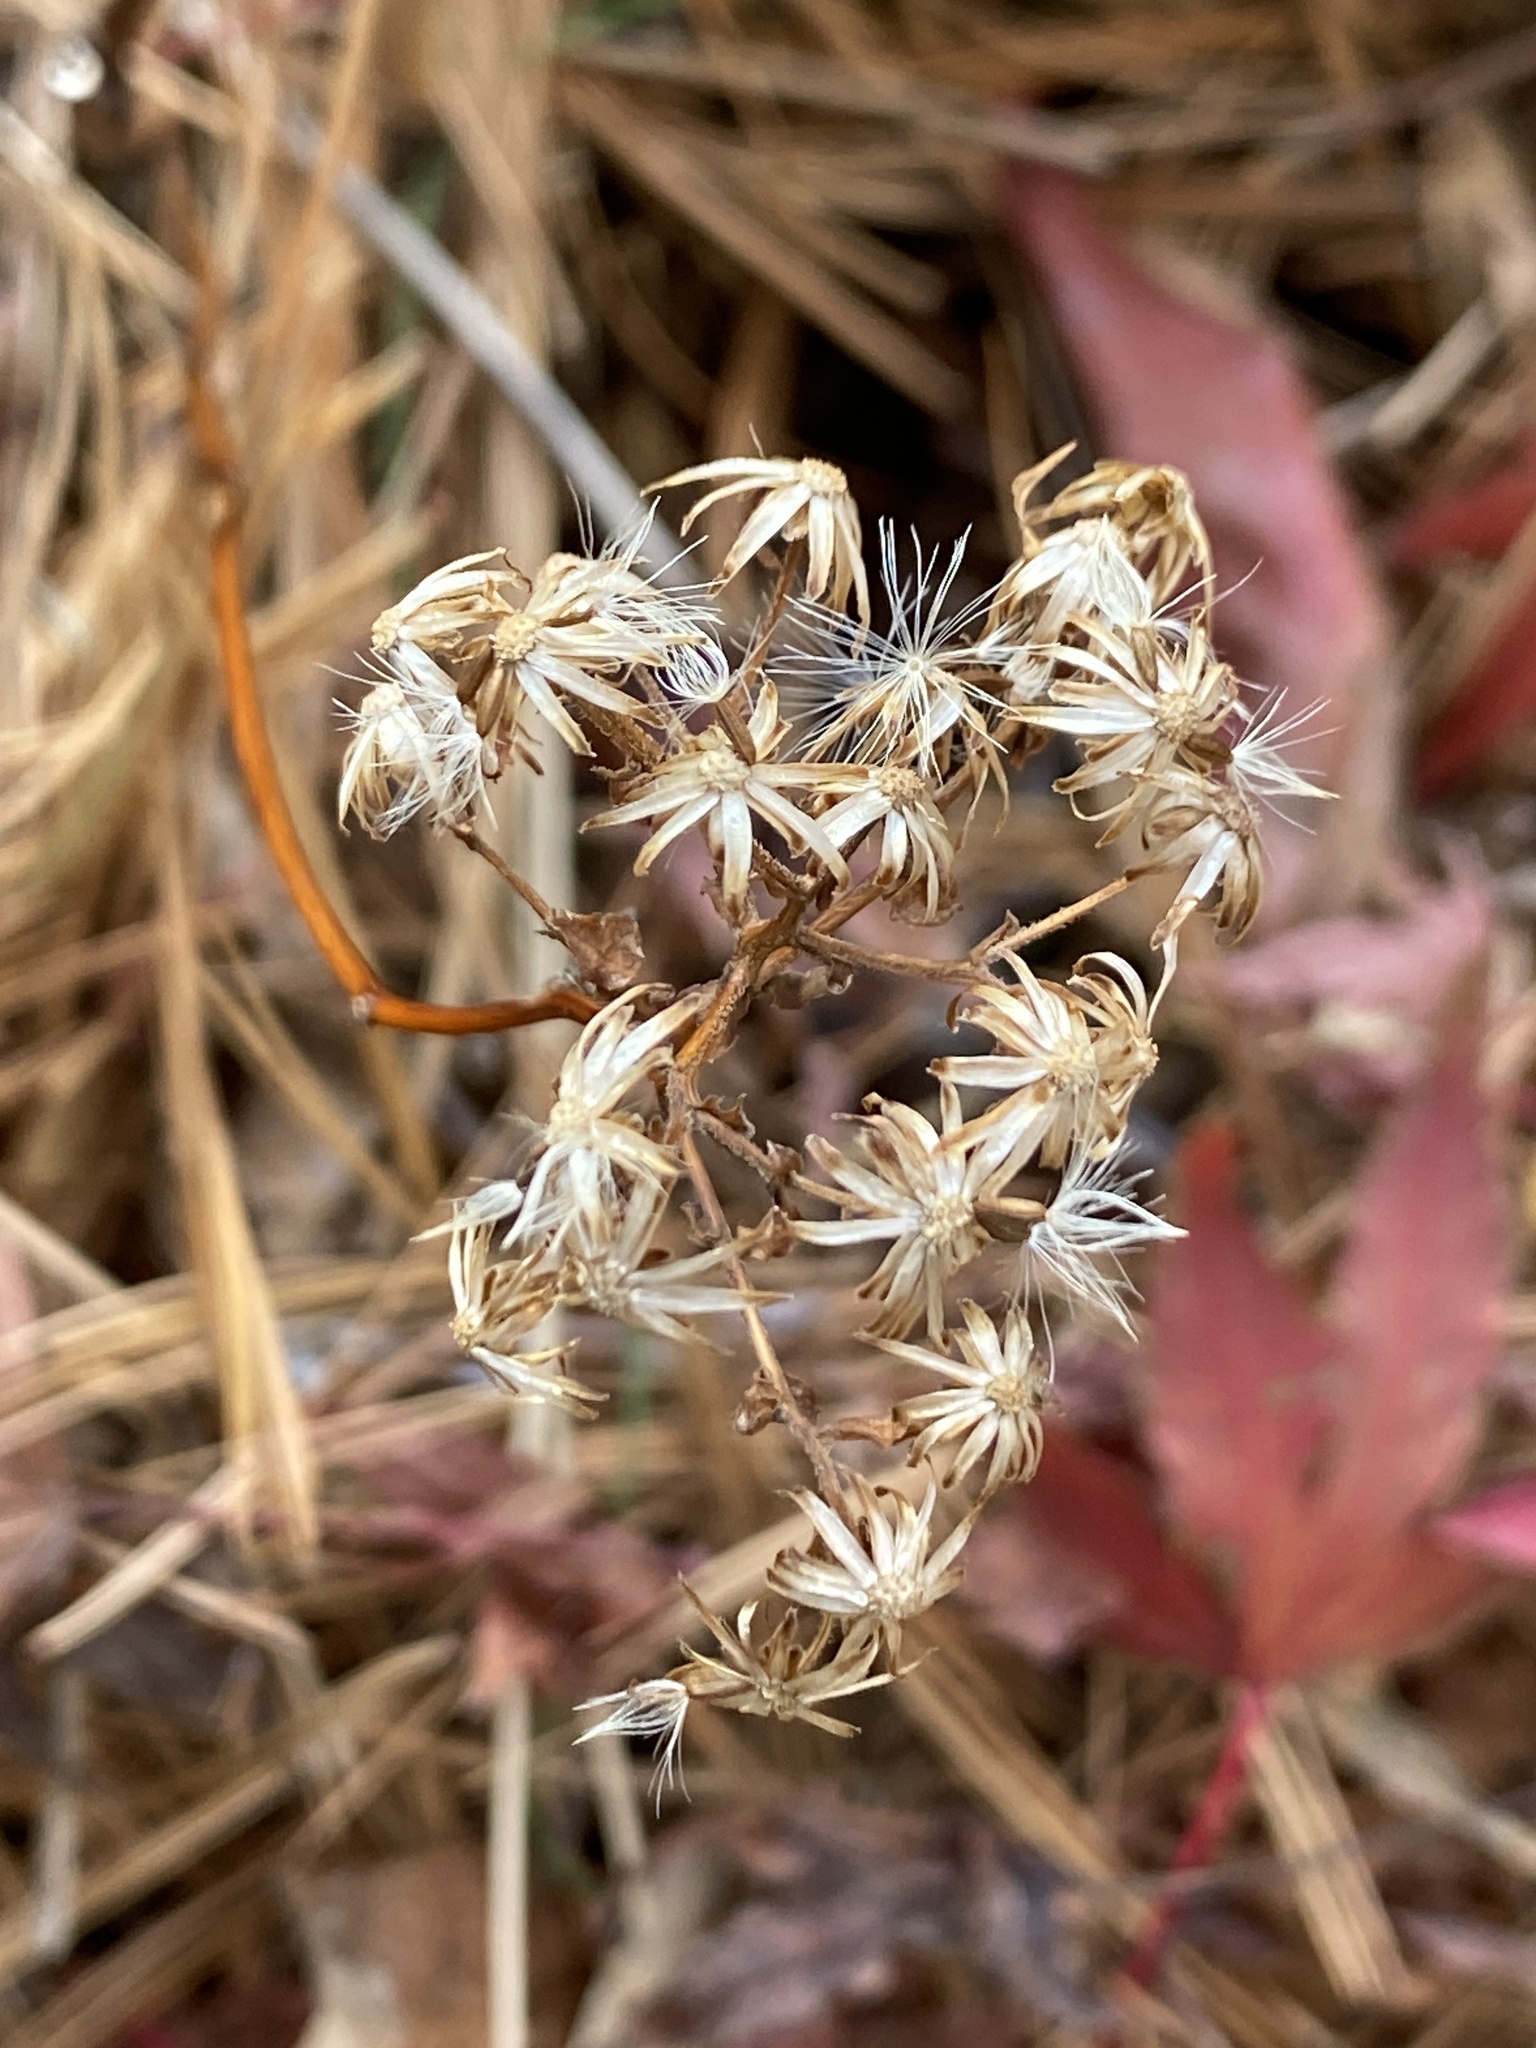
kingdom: Plantae
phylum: Tracheophyta
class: Magnoliopsida
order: Asterales
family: Asteraceae
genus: Eurybia
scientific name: Eurybia divaricata
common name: White wood aster
